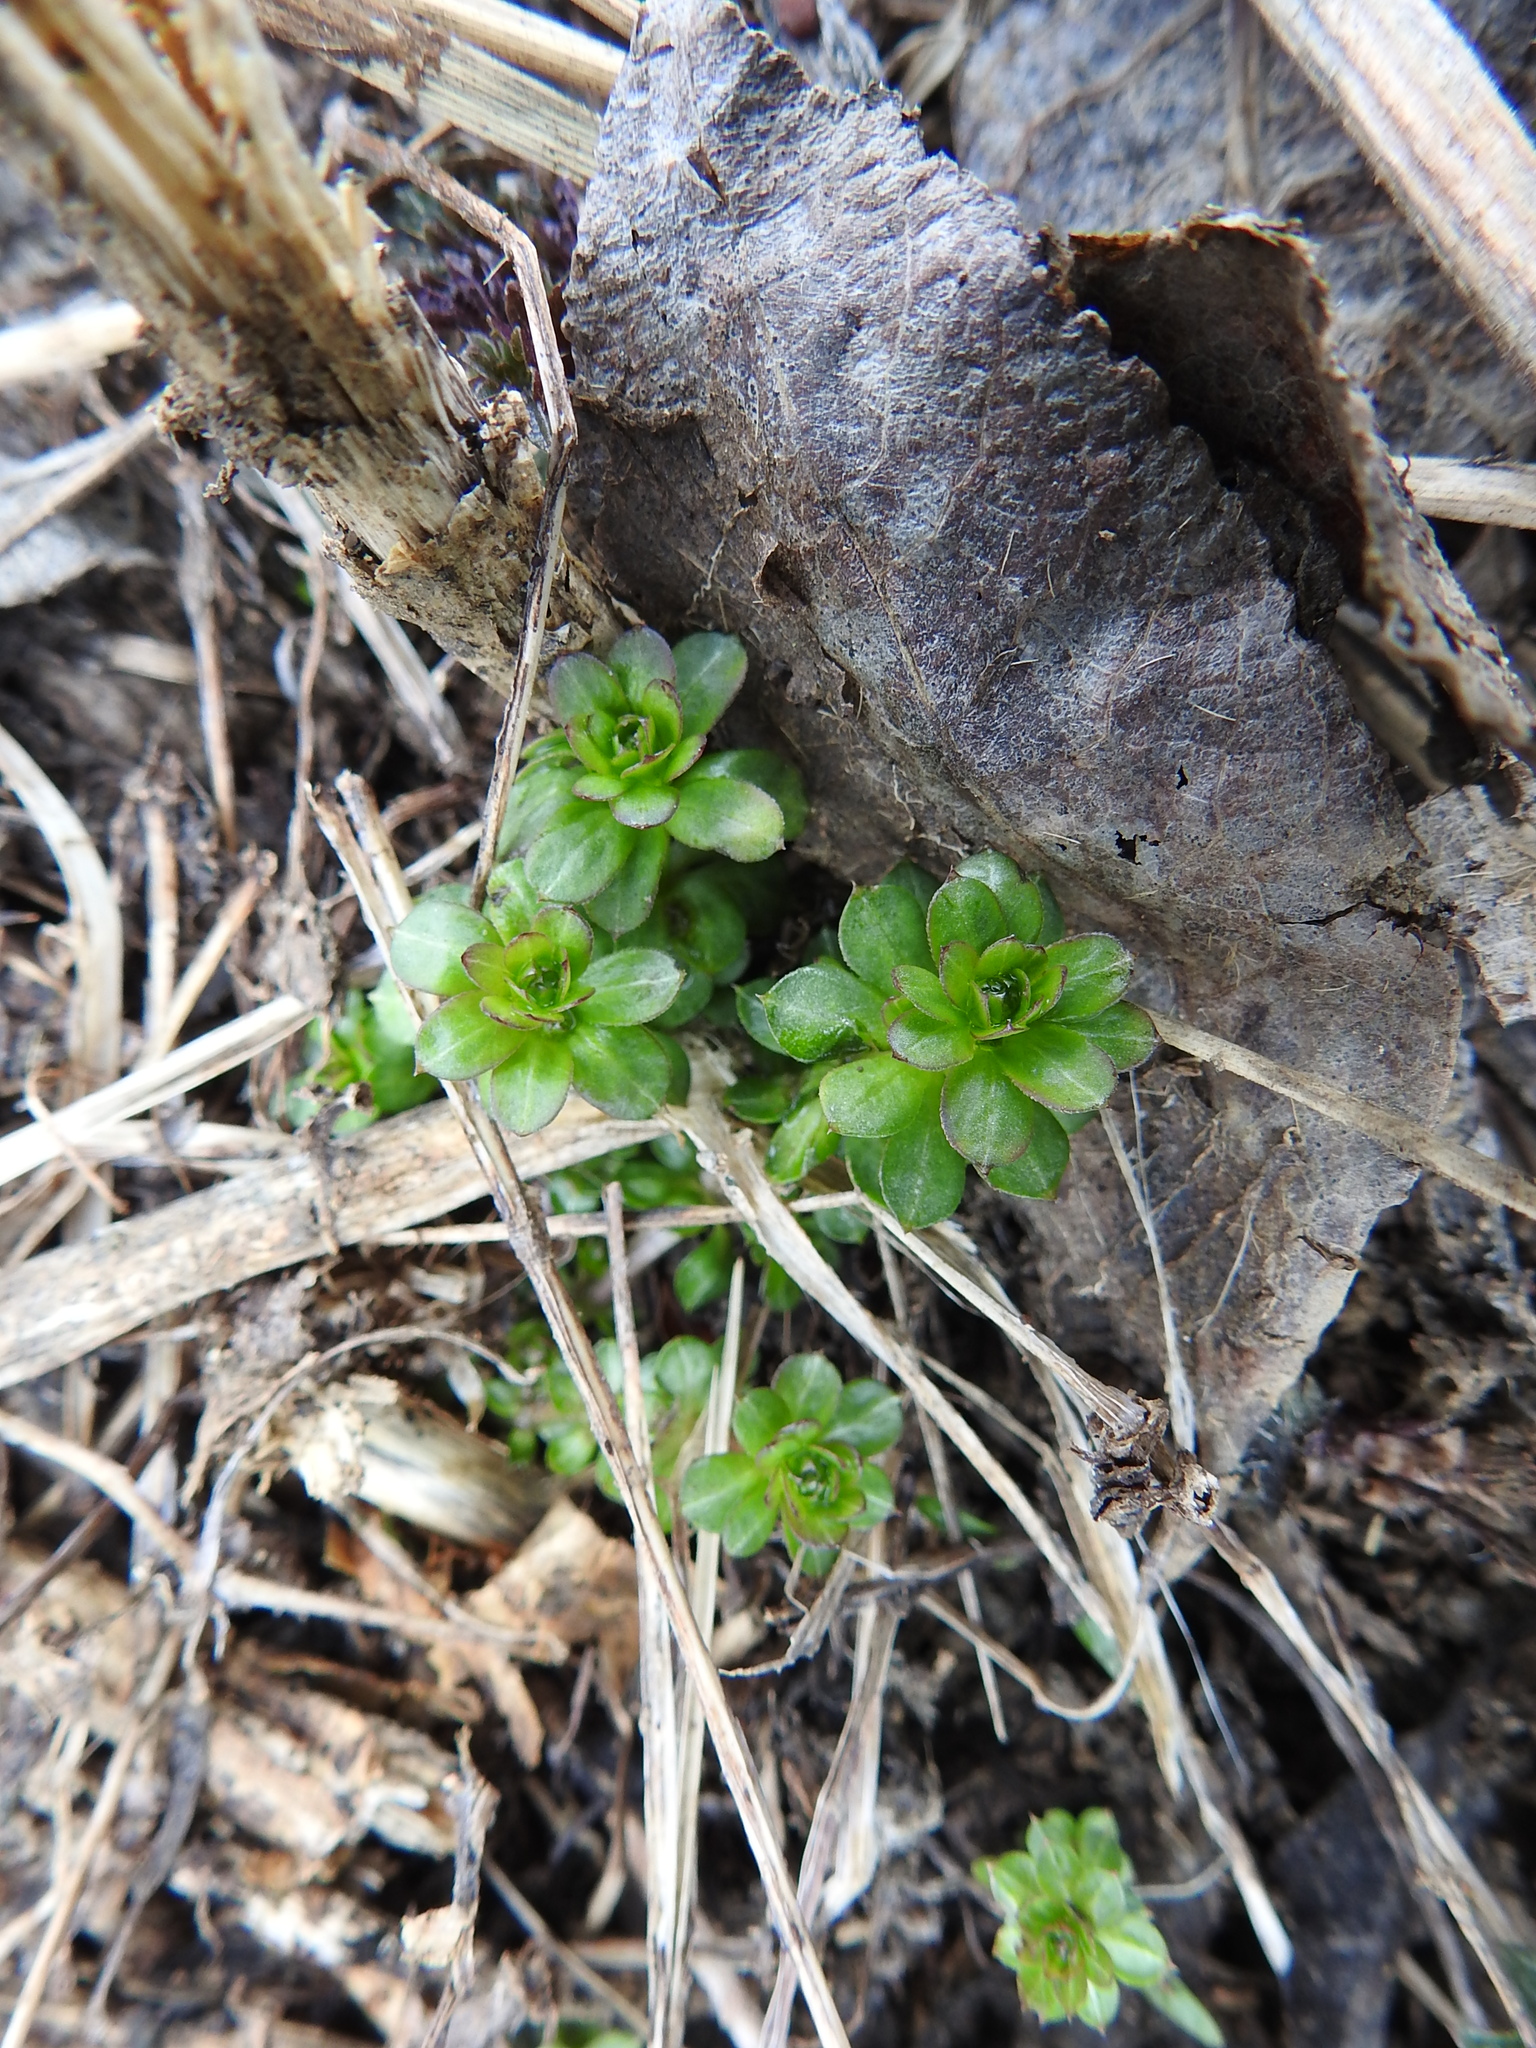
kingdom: Plantae
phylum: Tracheophyta
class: Magnoliopsida
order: Gentianales
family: Rubiaceae
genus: Galium
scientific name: Galium mollugo
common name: Hedge bedstraw
